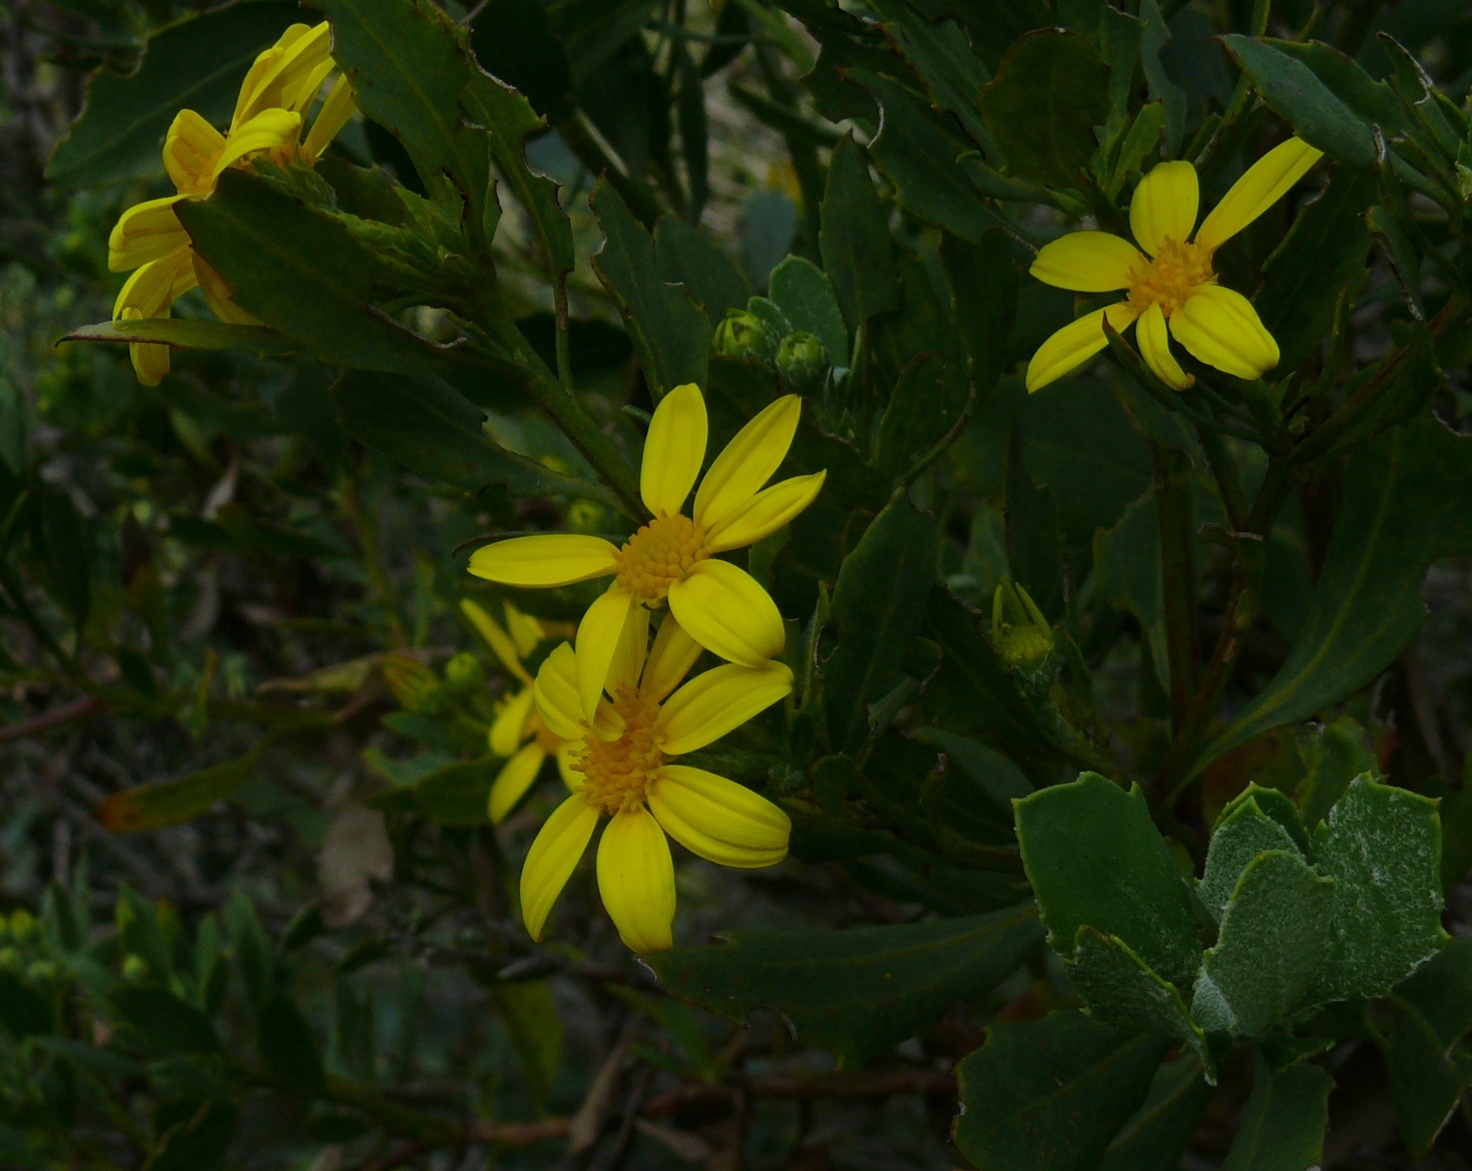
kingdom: Plantae
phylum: Tracheophyta
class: Magnoliopsida
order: Asterales
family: Asteraceae
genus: Osteospermum
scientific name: Osteospermum moniliferum
